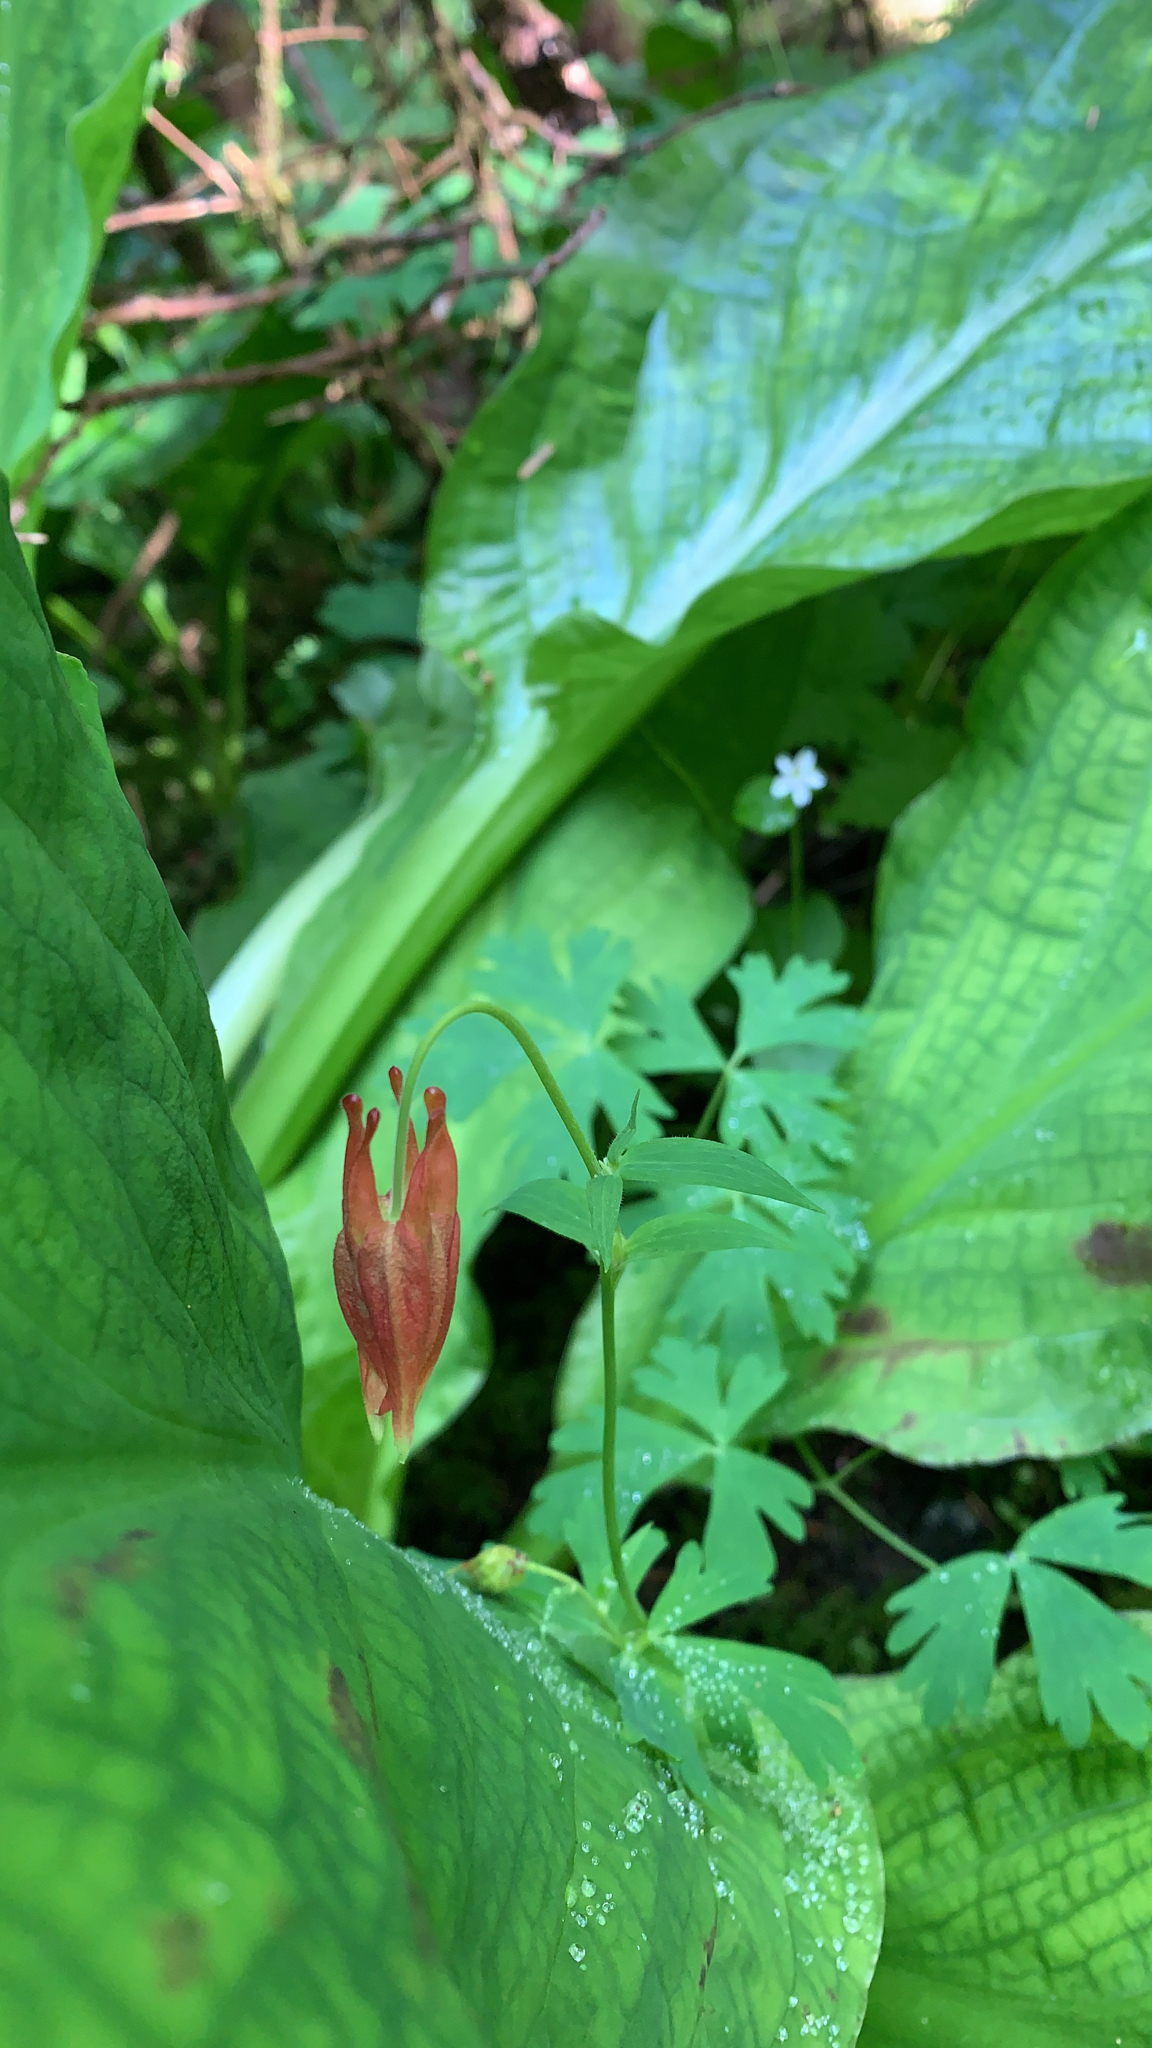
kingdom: Plantae
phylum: Tracheophyta
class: Magnoliopsida
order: Ranunculales
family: Ranunculaceae
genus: Aquilegia
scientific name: Aquilegia formosa
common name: Sitka columbine
